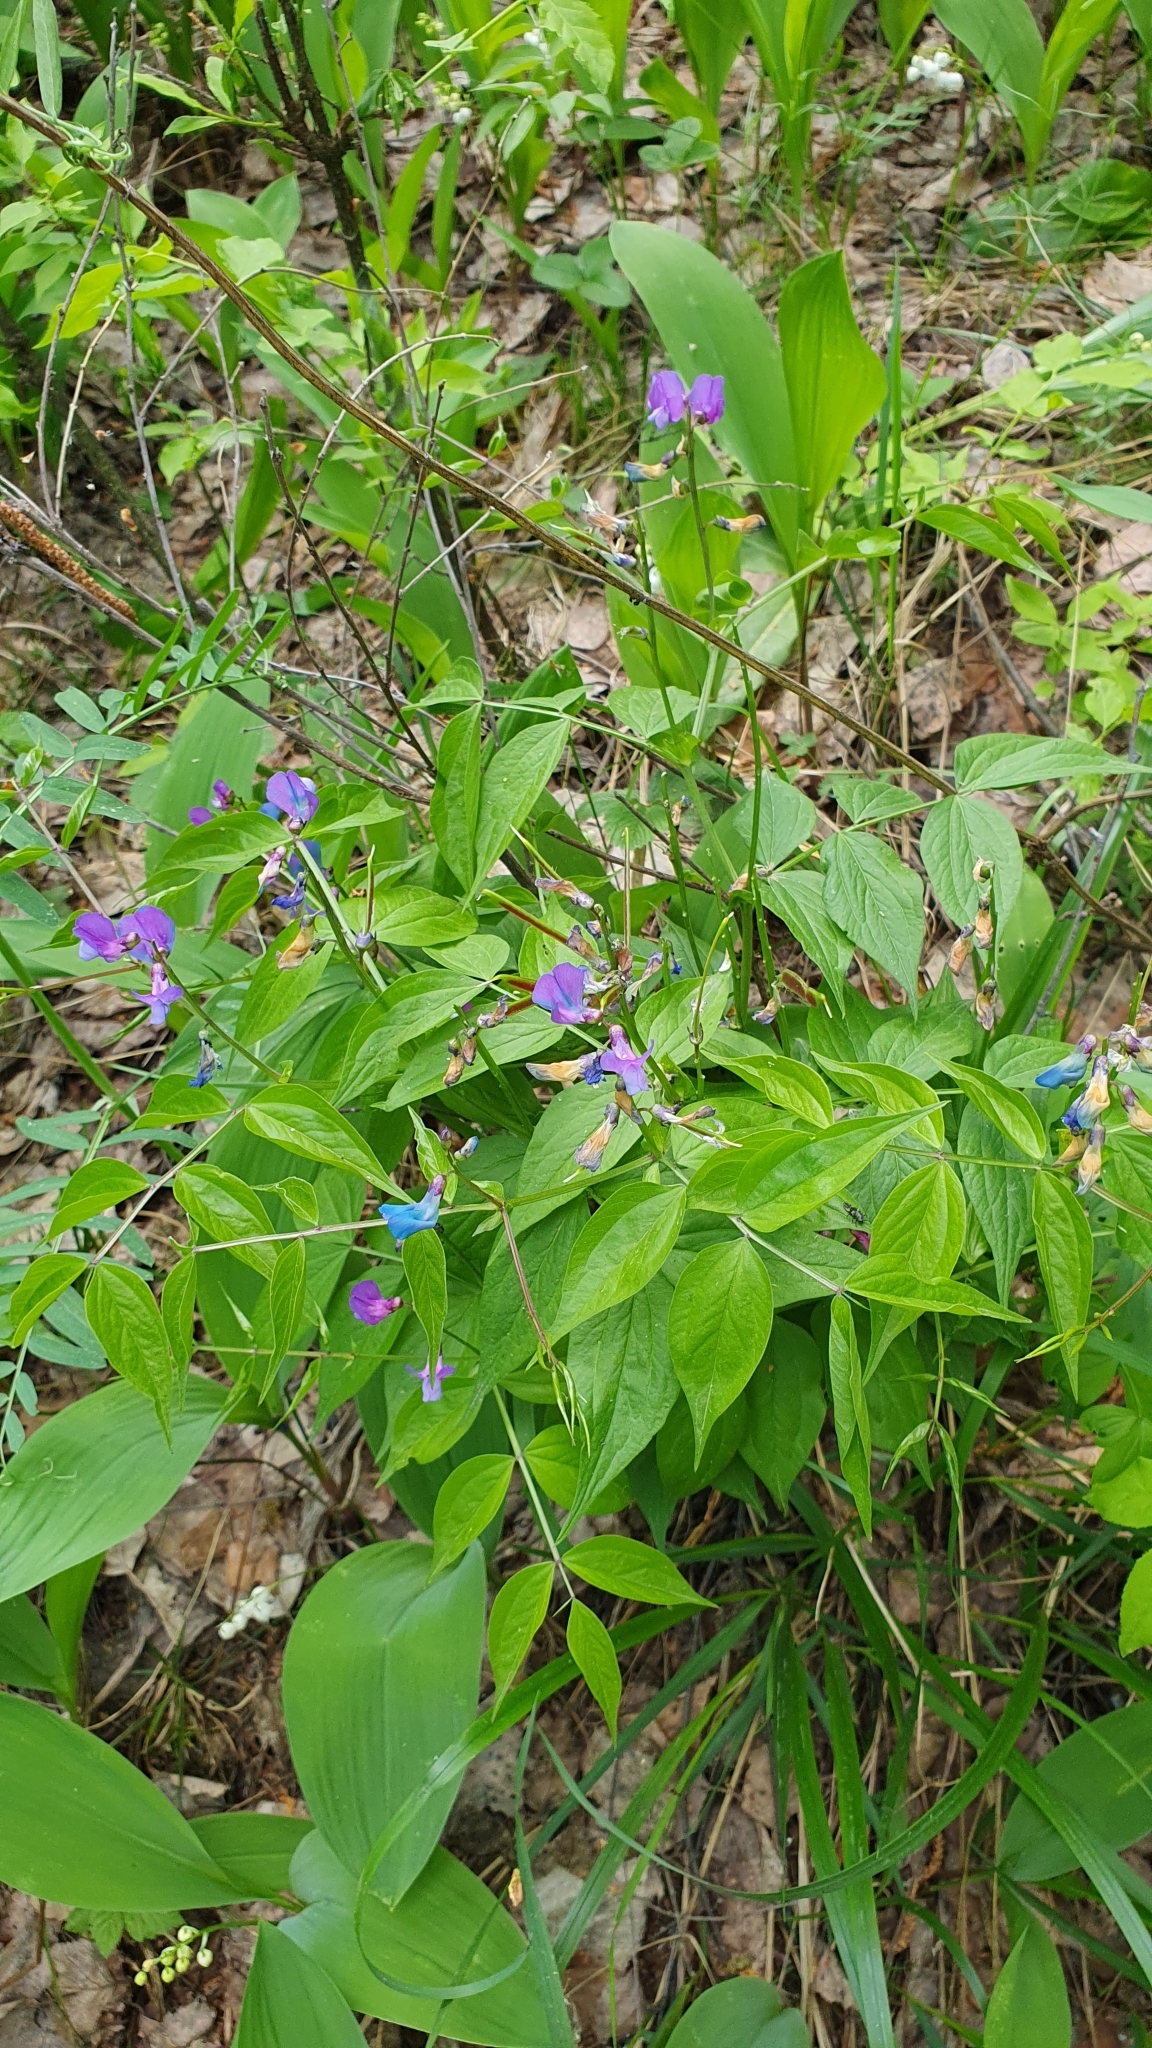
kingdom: Plantae
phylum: Tracheophyta
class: Magnoliopsida
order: Fabales
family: Fabaceae
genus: Lathyrus
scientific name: Lathyrus vernus
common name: Spring pea
